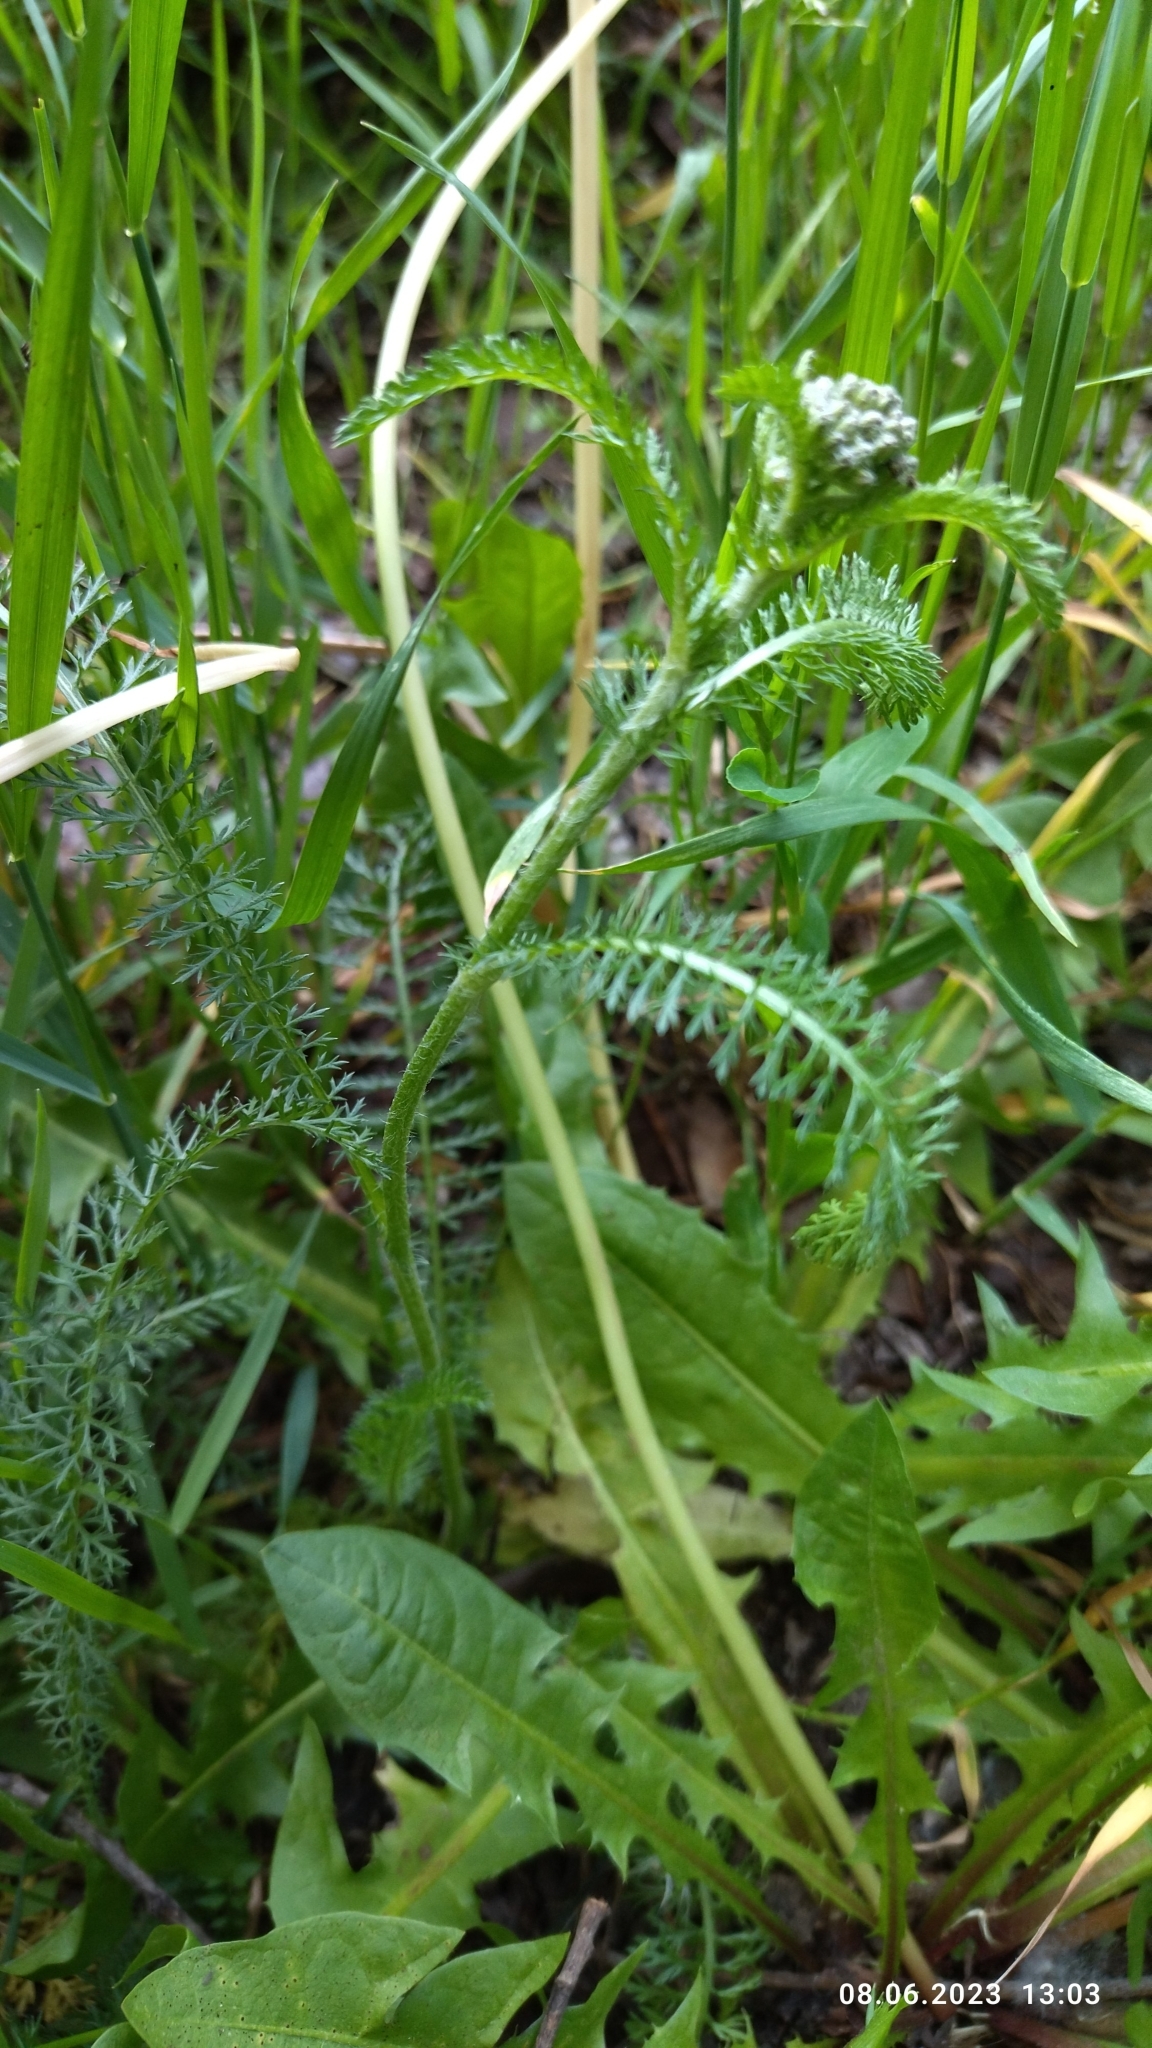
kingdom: Plantae
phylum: Tracheophyta
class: Magnoliopsida
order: Asterales
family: Asteraceae
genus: Achillea
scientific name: Achillea millefolium
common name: Yarrow
